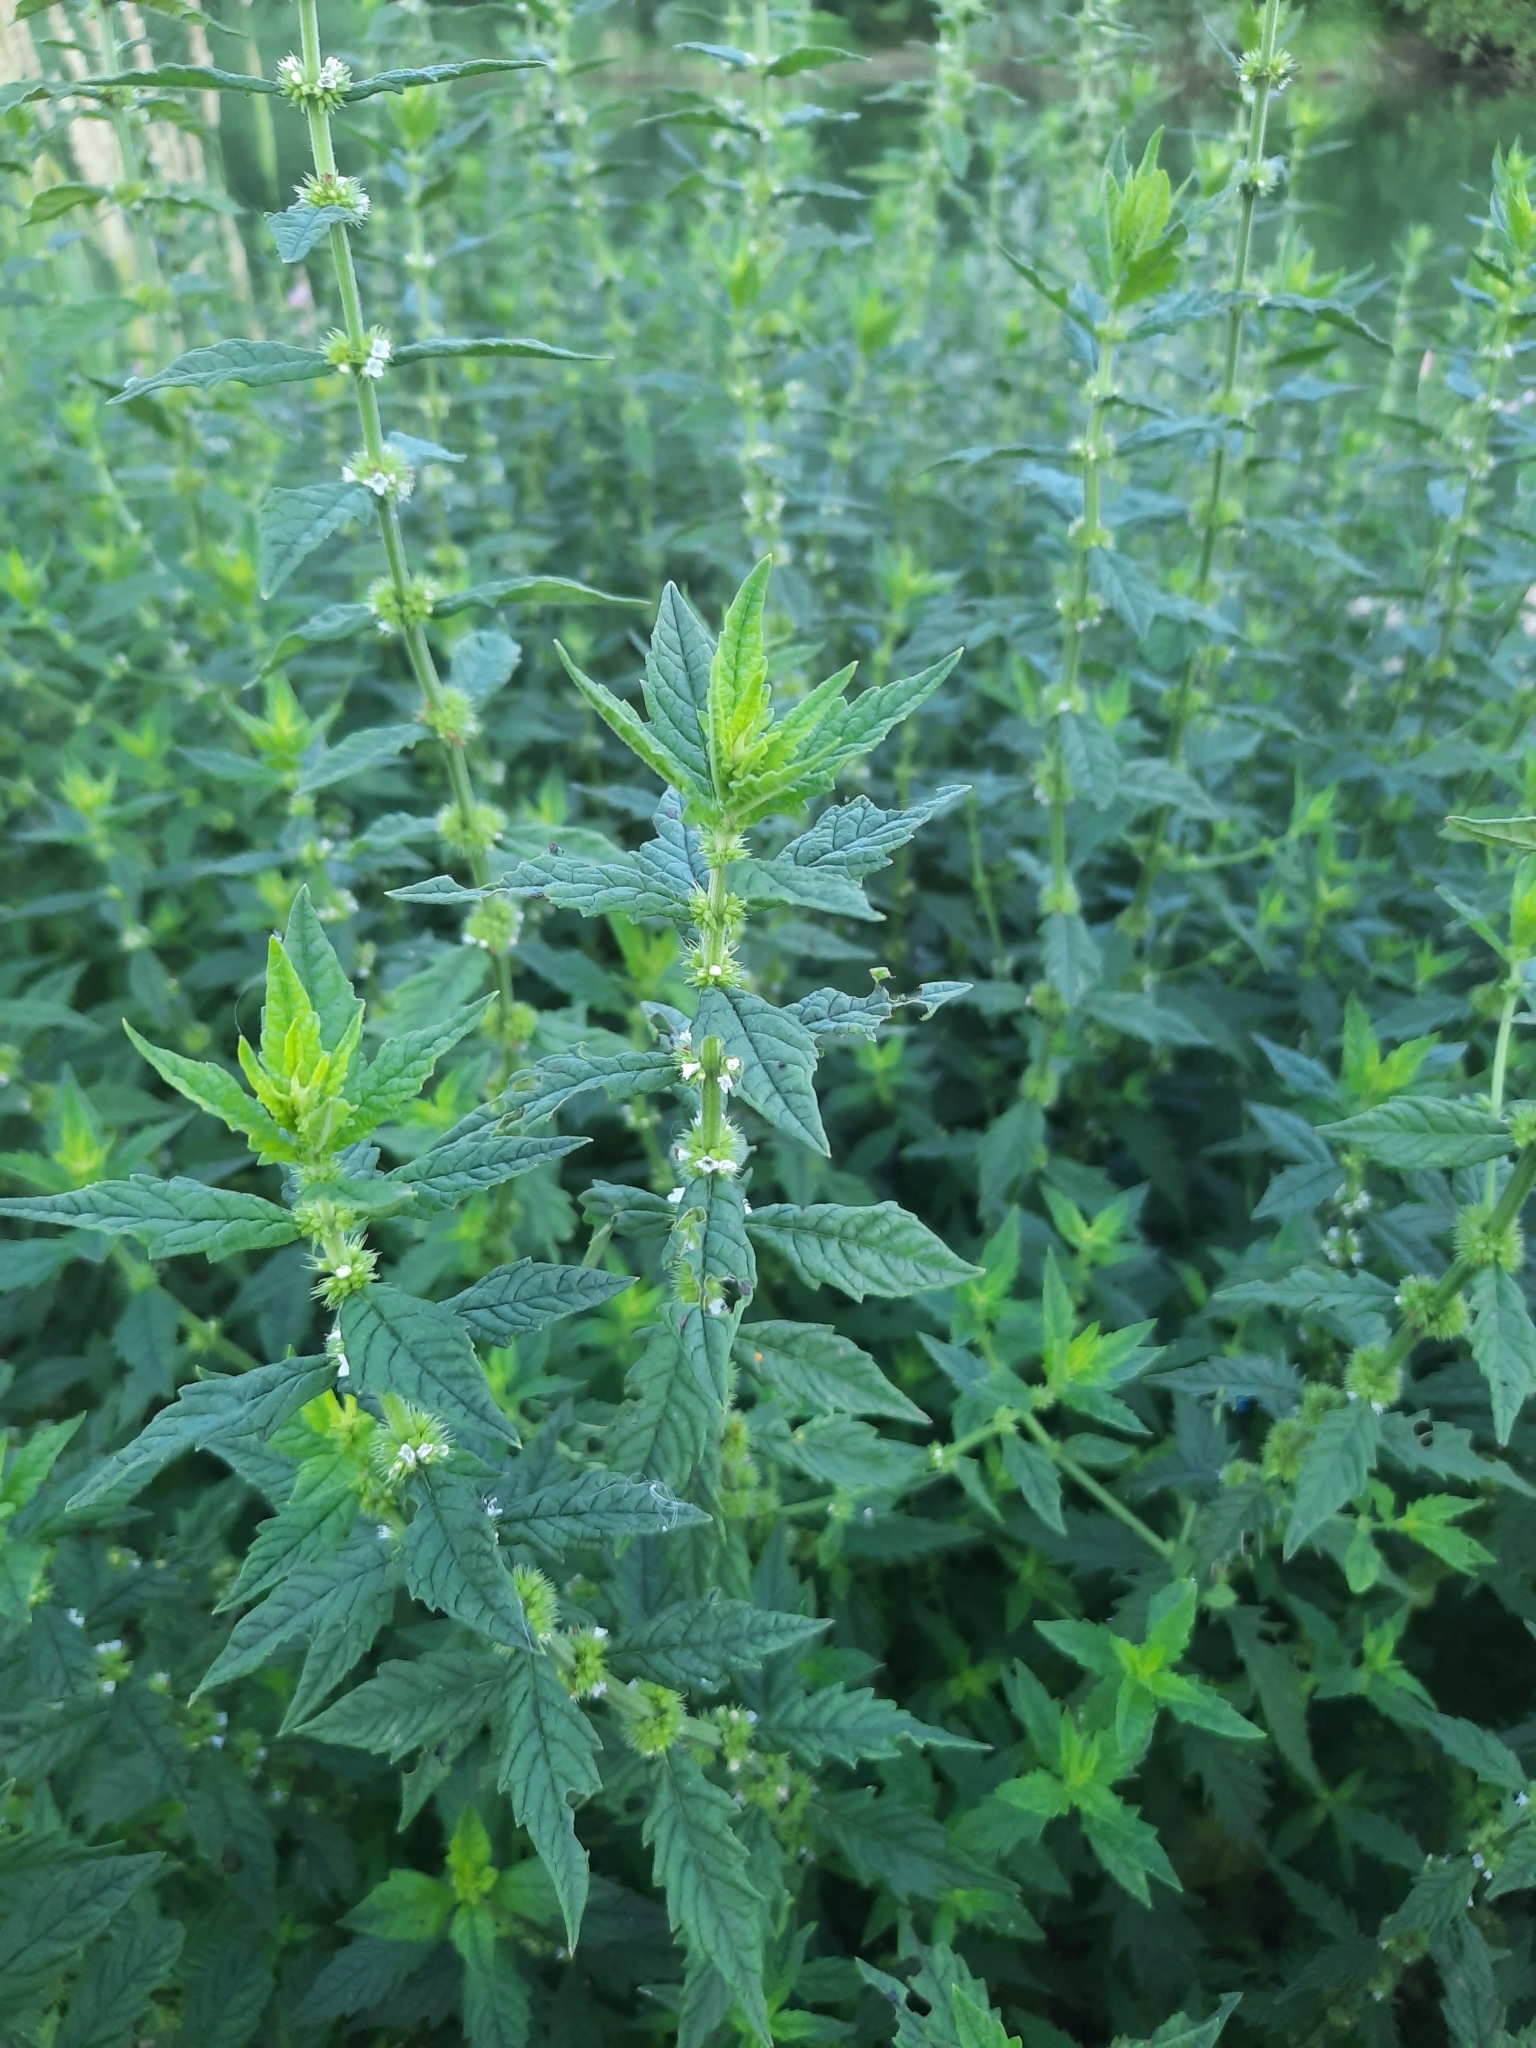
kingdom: Plantae
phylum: Tracheophyta
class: Magnoliopsida
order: Lamiales
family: Lamiaceae
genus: Lycopus
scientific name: Lycopus europaeus
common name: European bugleweed
